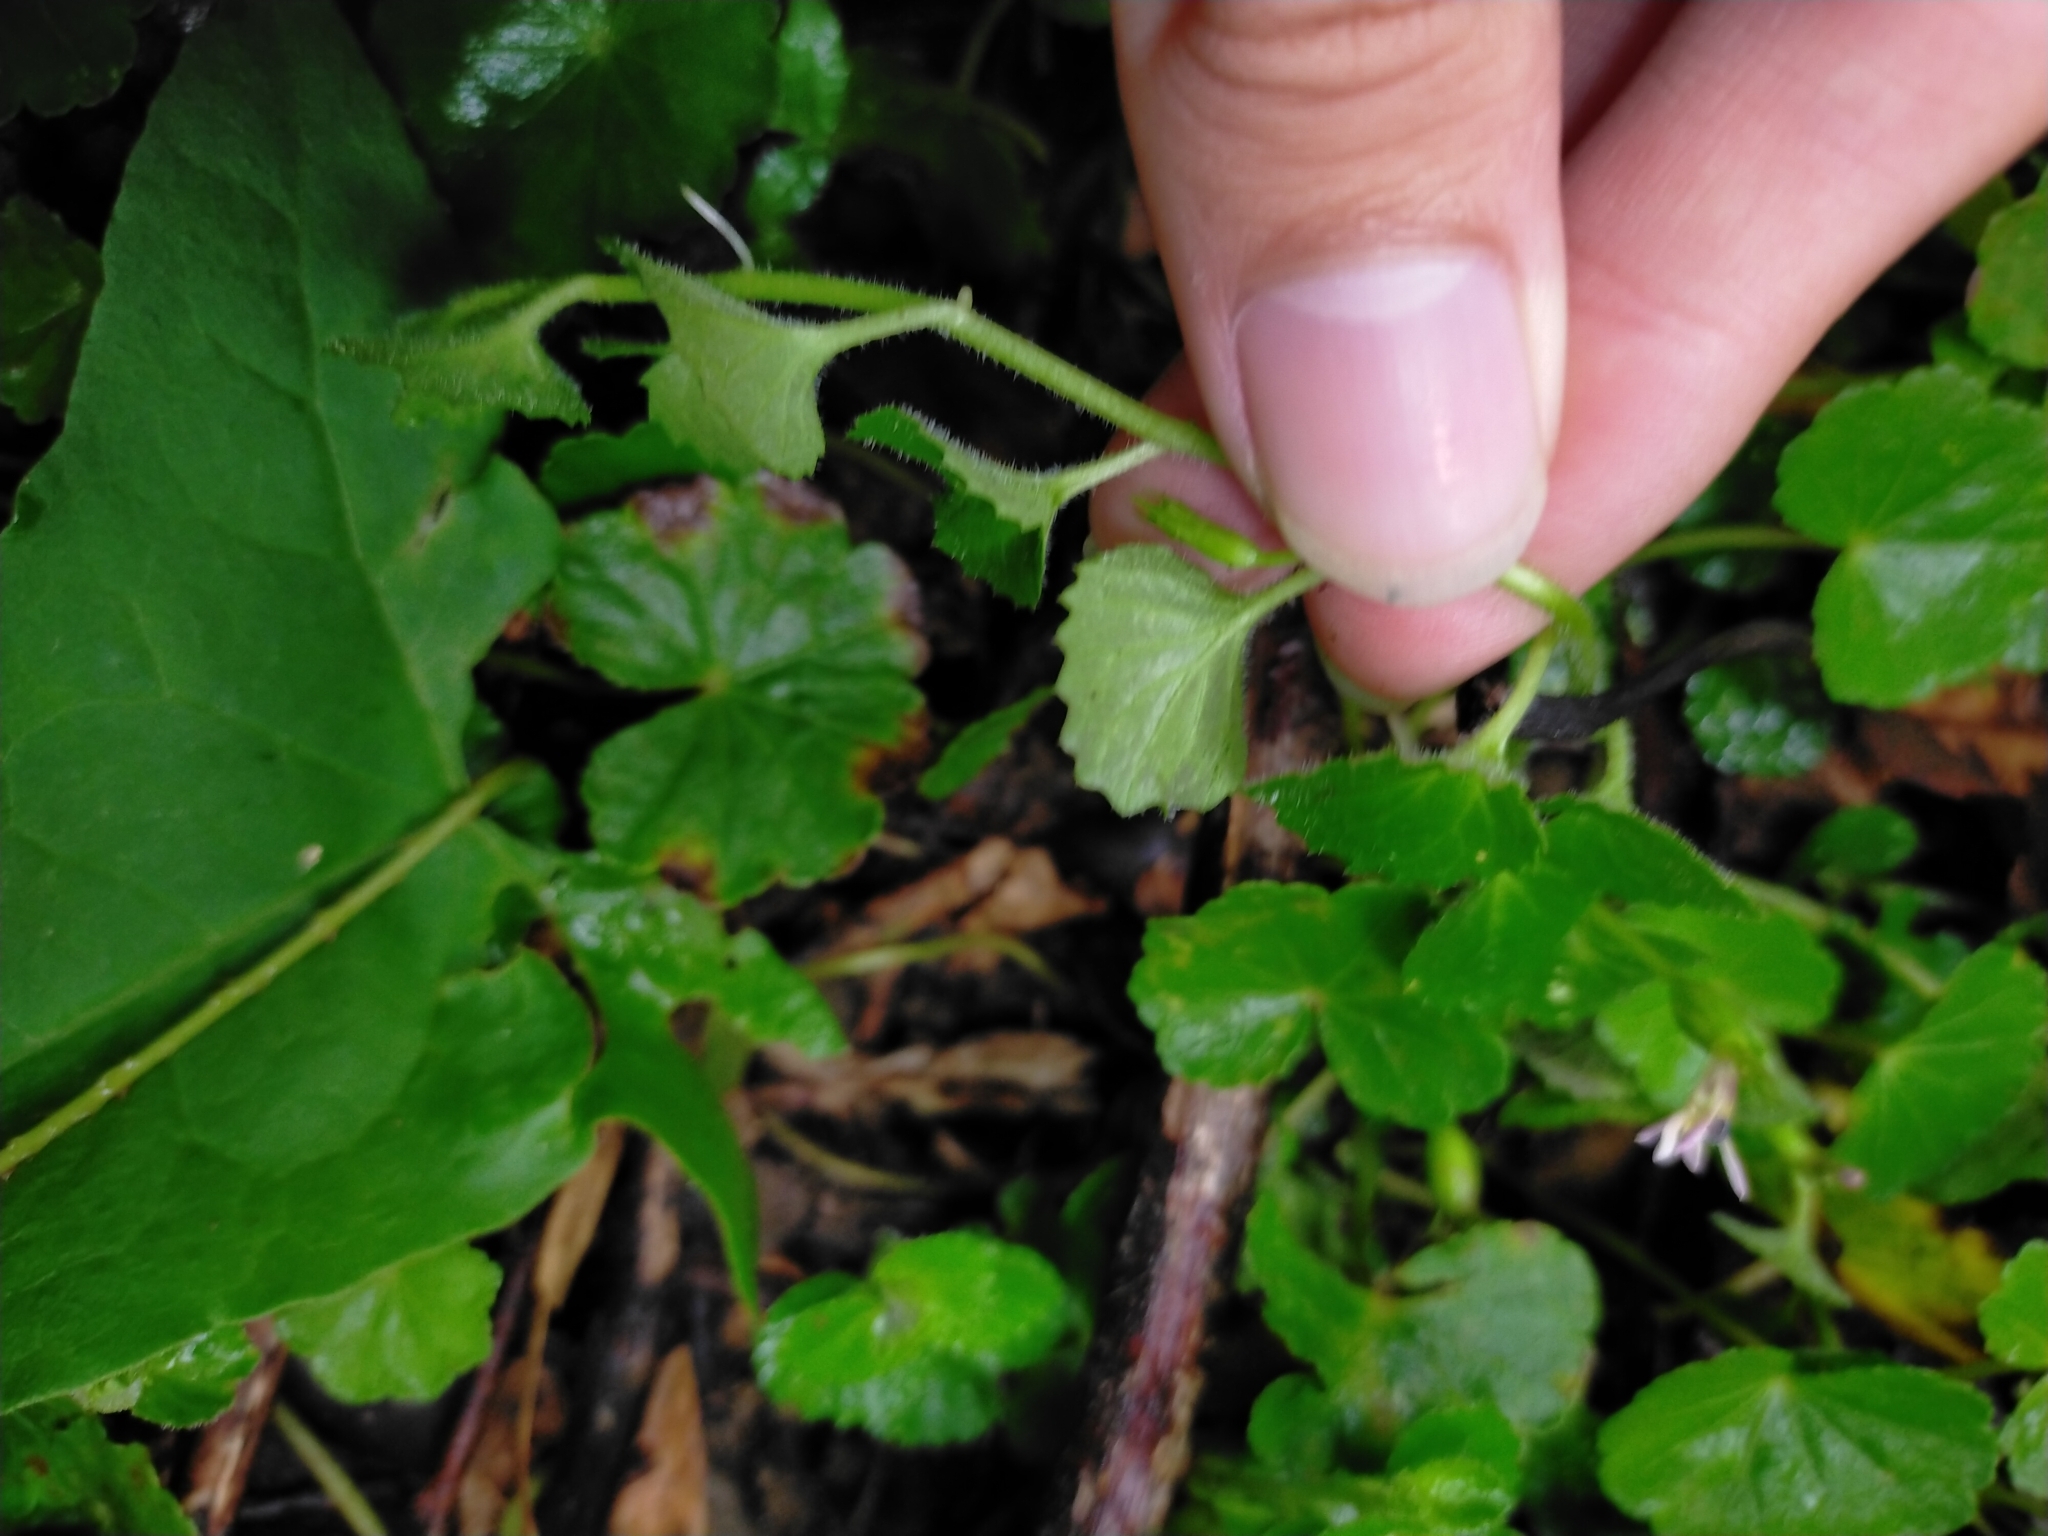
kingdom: Plantae
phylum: Tracheophyta
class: Magnoliopsida
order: Asterales
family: Campanulaceae
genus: Lobelia
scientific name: Lobelia nummularia
